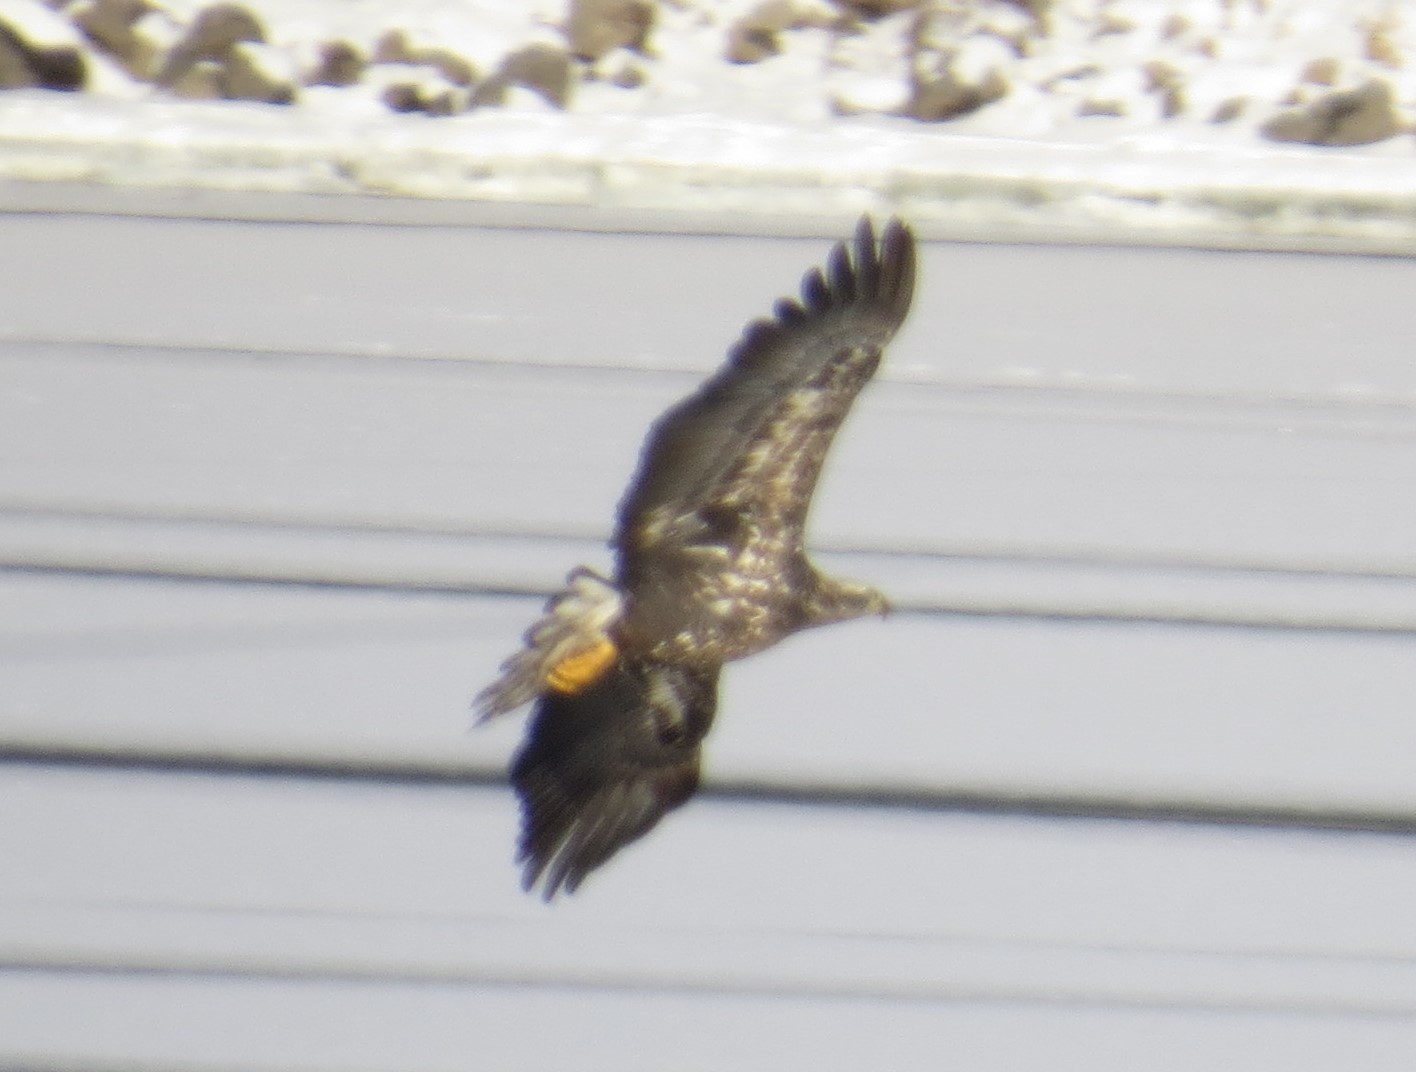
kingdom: Animalia
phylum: Chordata
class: Aves
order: Accipitriformes
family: Accipitridae
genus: Haliaeetus
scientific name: Haliaeetus leucocephalus
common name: Bald eagle
